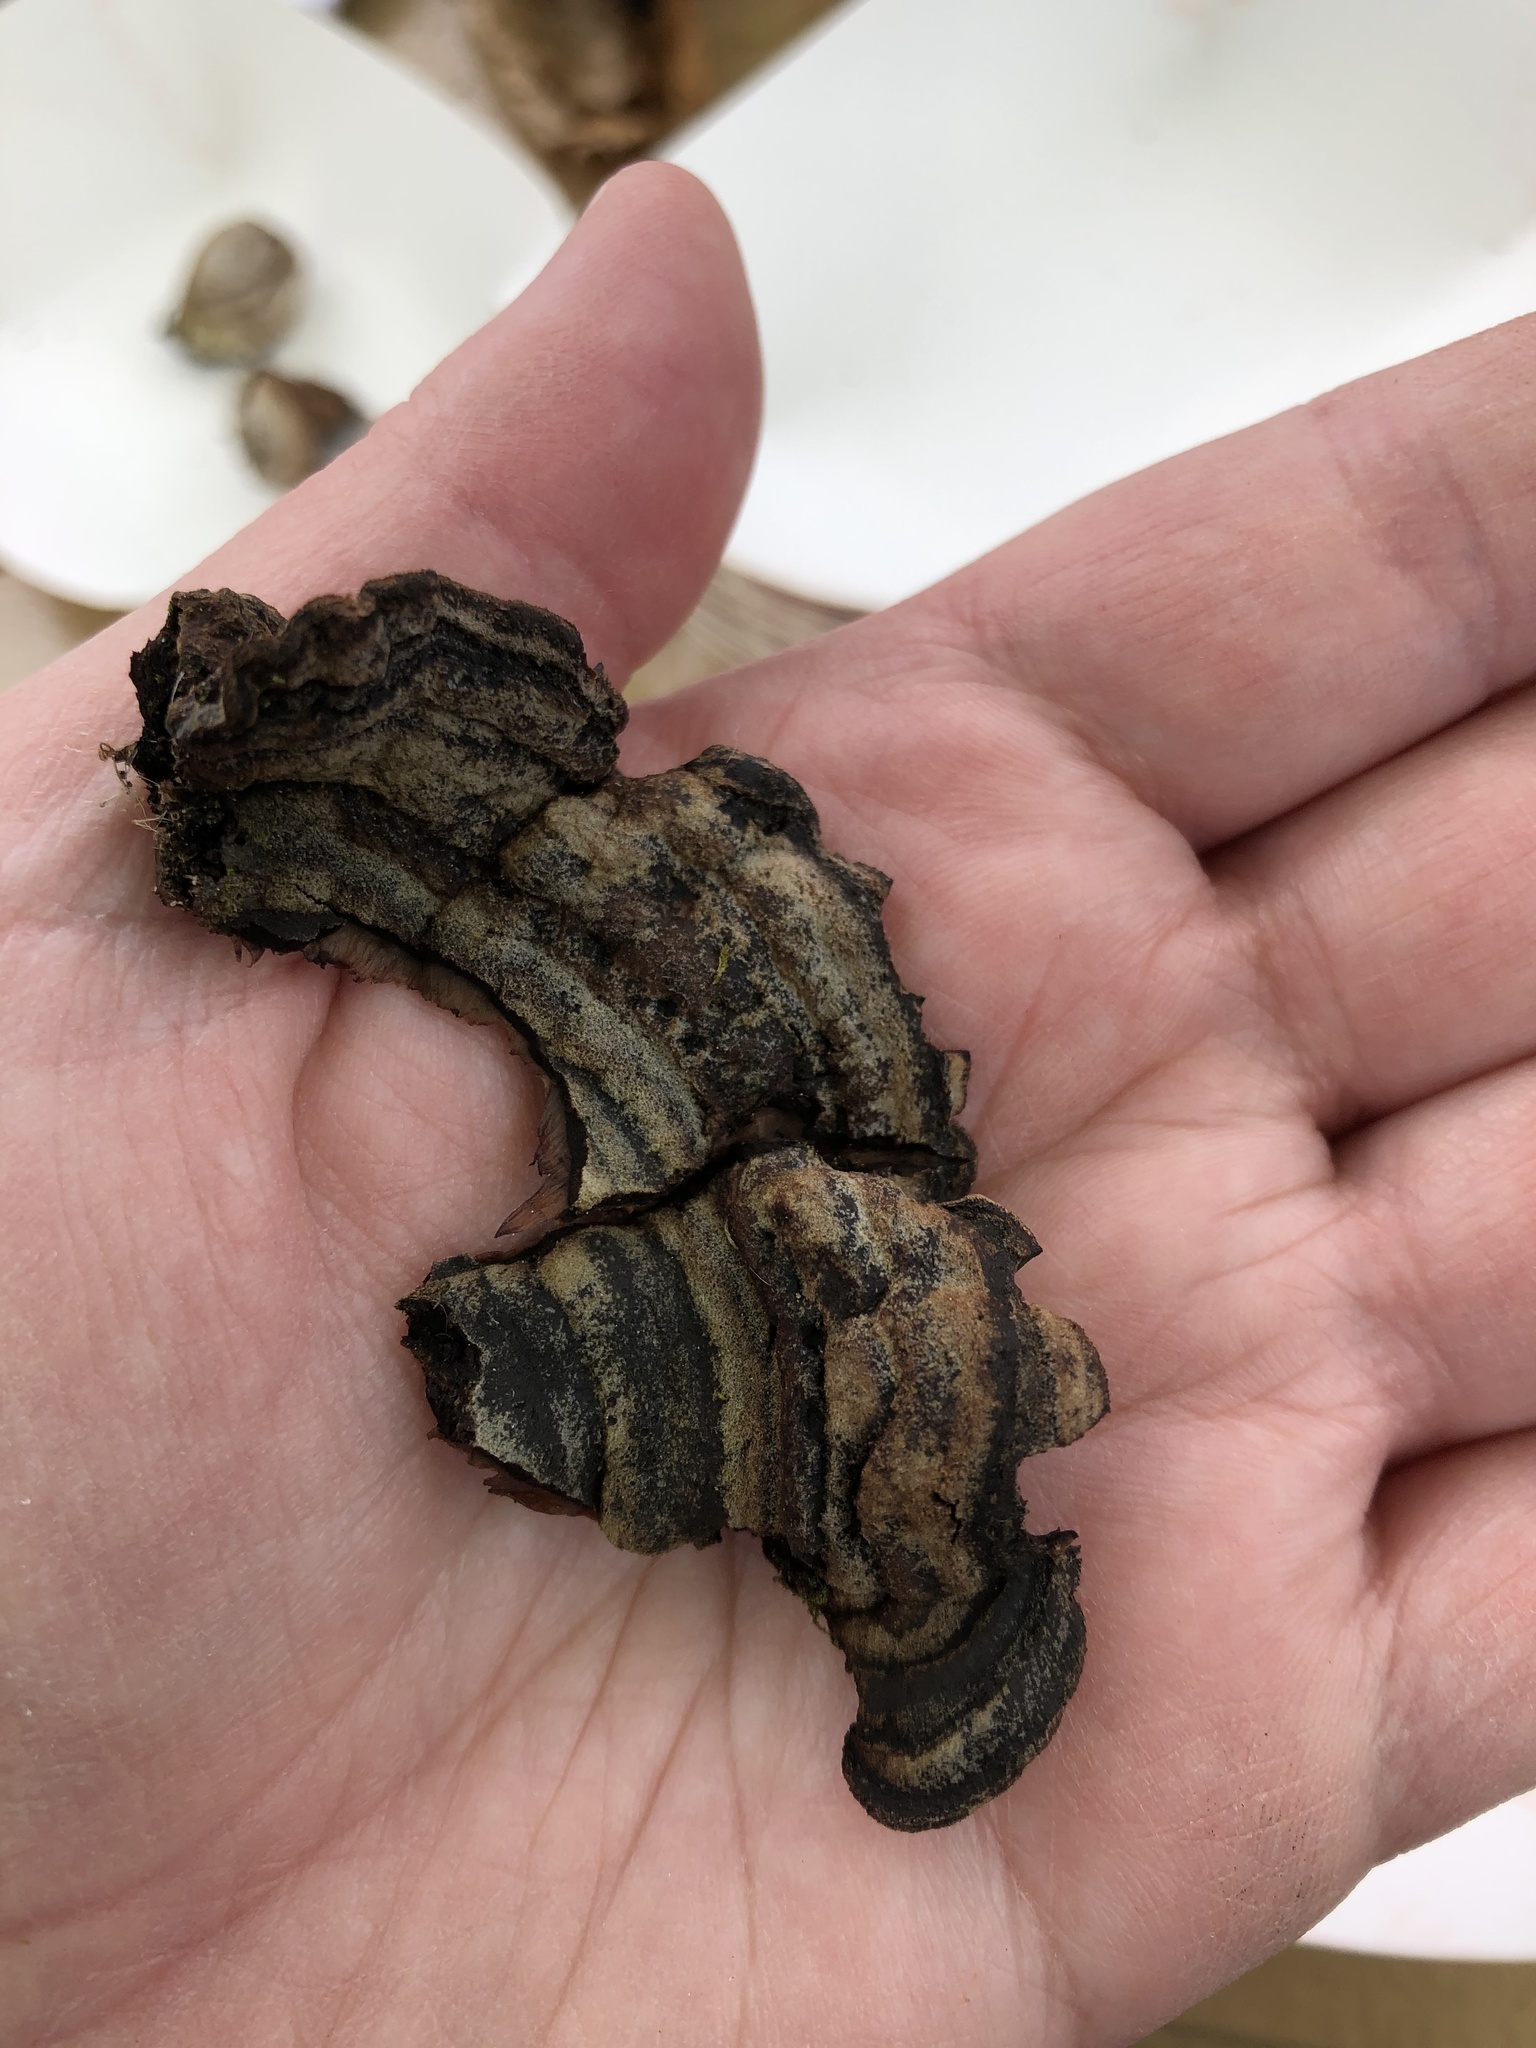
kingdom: Fungi
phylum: Basidiomycota
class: Agaricomycetes
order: Corticiales
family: Punctulariaceae
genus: Punctularia
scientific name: Punctularia strigosozonata
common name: White-rot fungus
